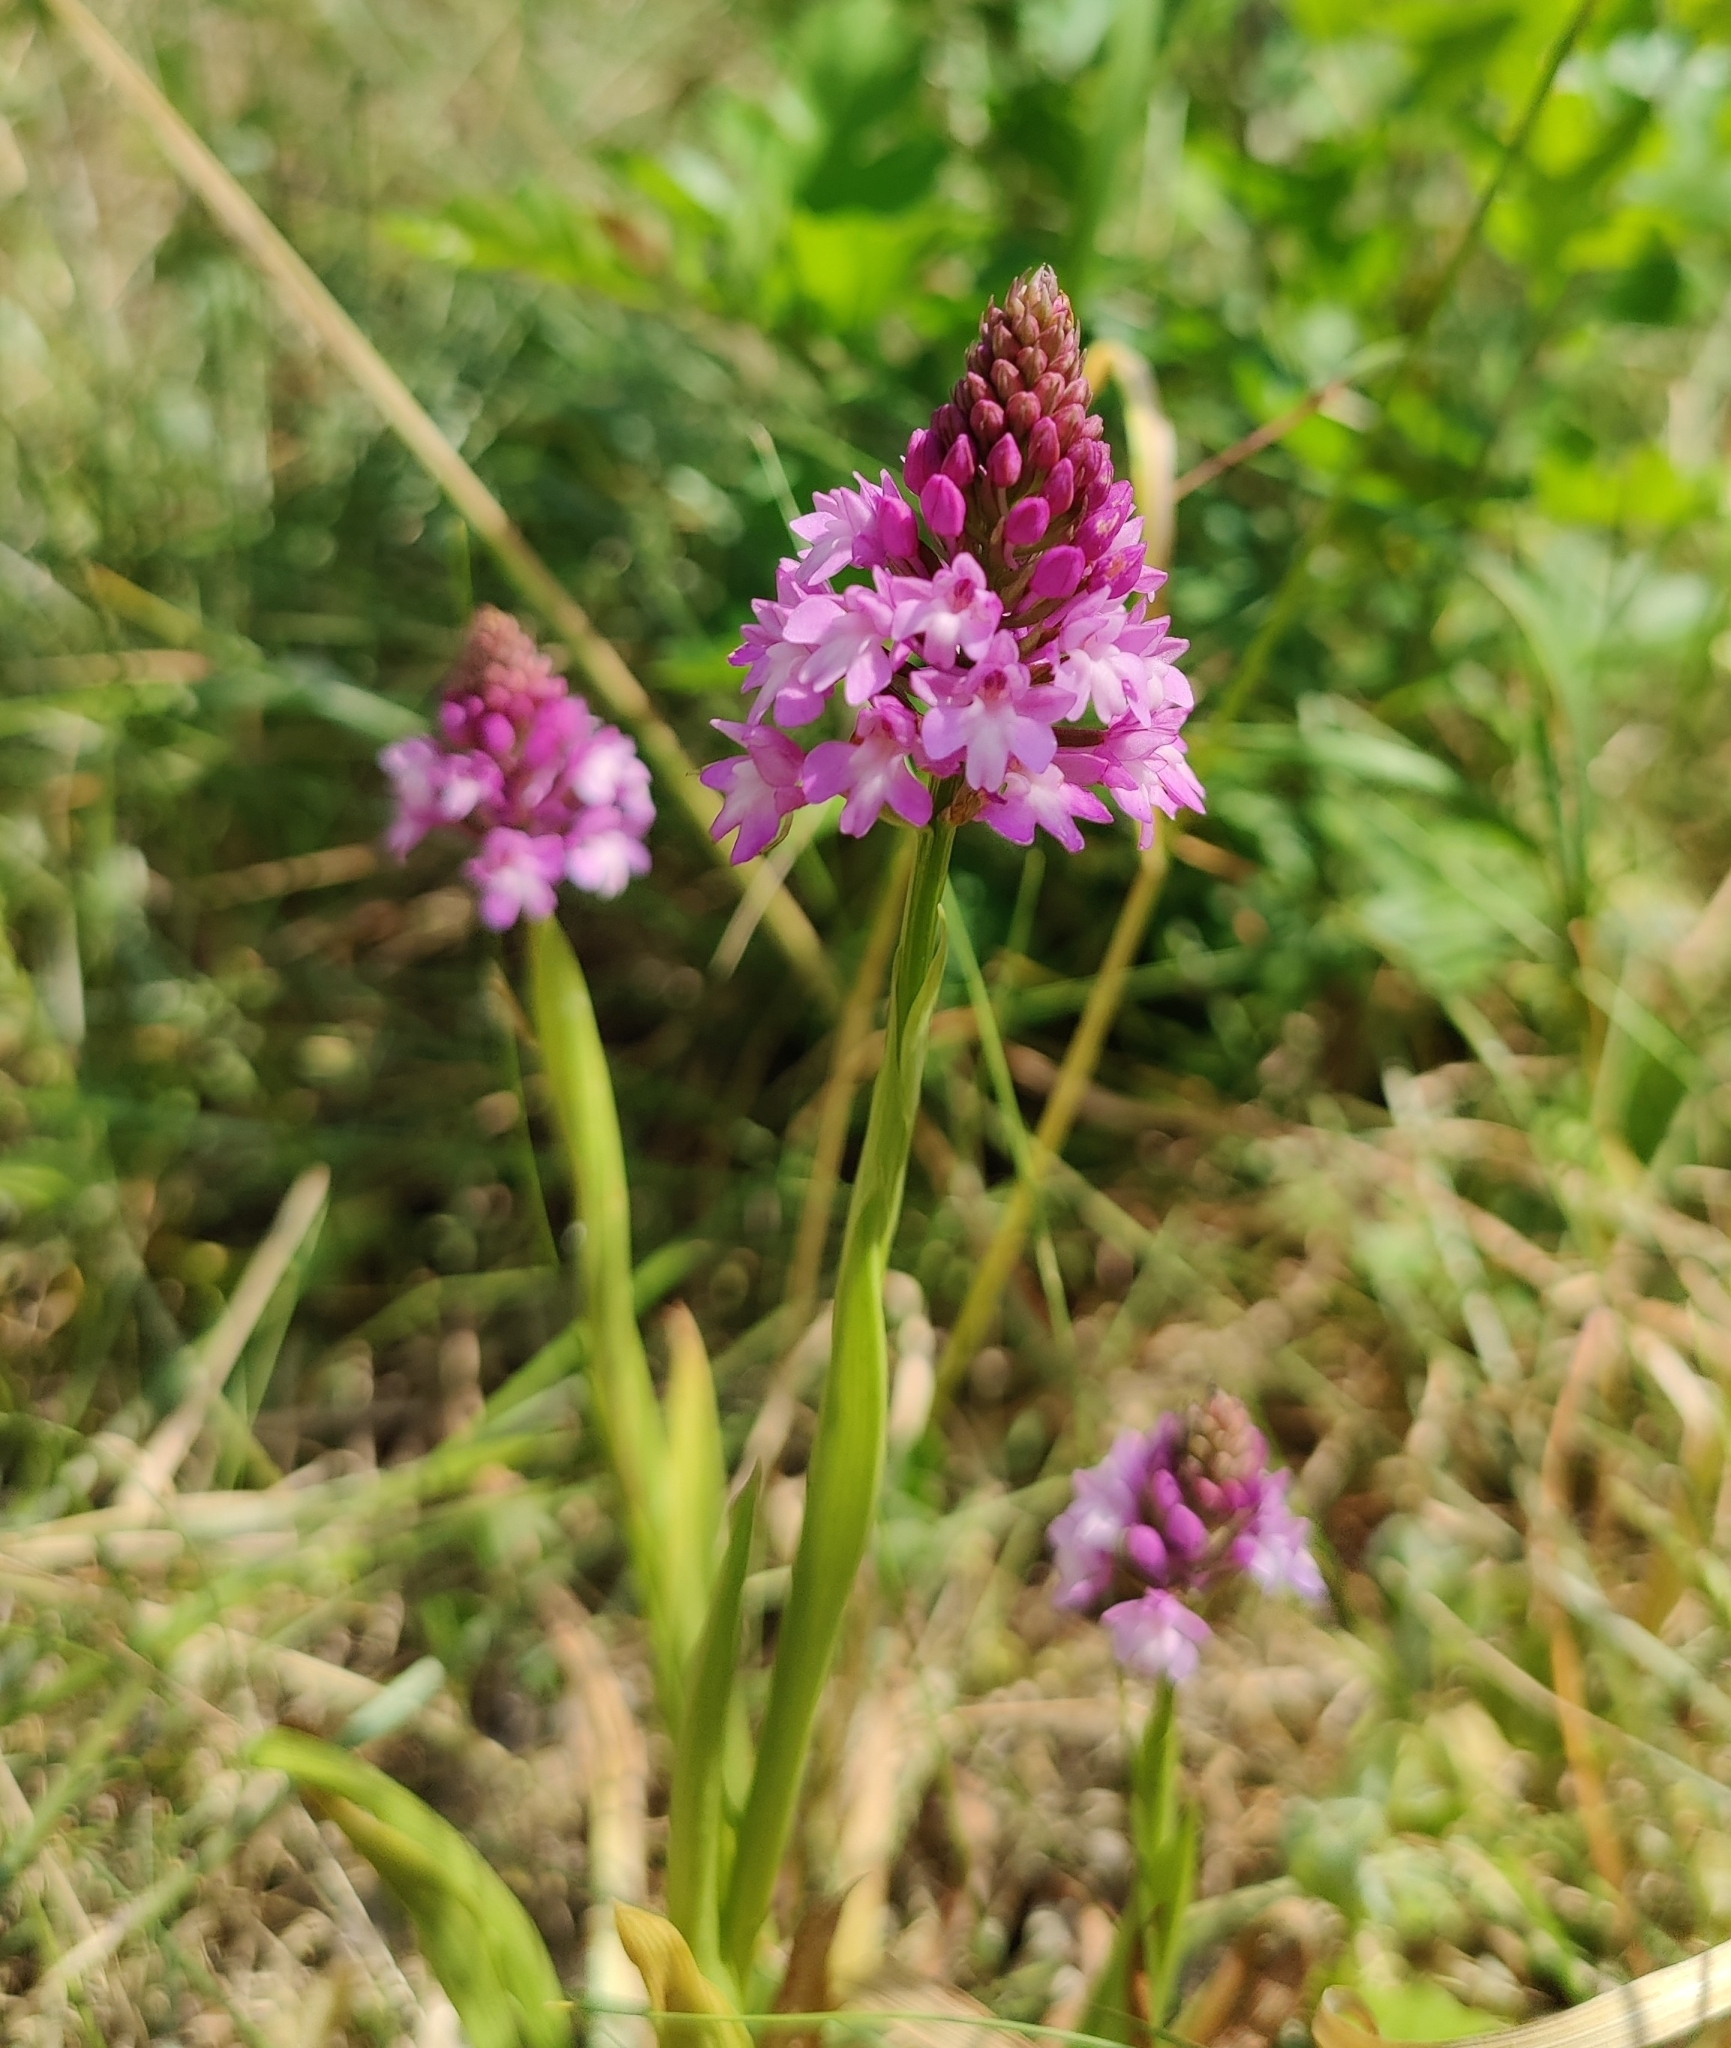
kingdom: Plantae
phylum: Tracheophyta
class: Liliopsida
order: Asparagales
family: Orchidaceae
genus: Anacamptis
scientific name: Anacamptis pyramidalis
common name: Pyramidal orchid
